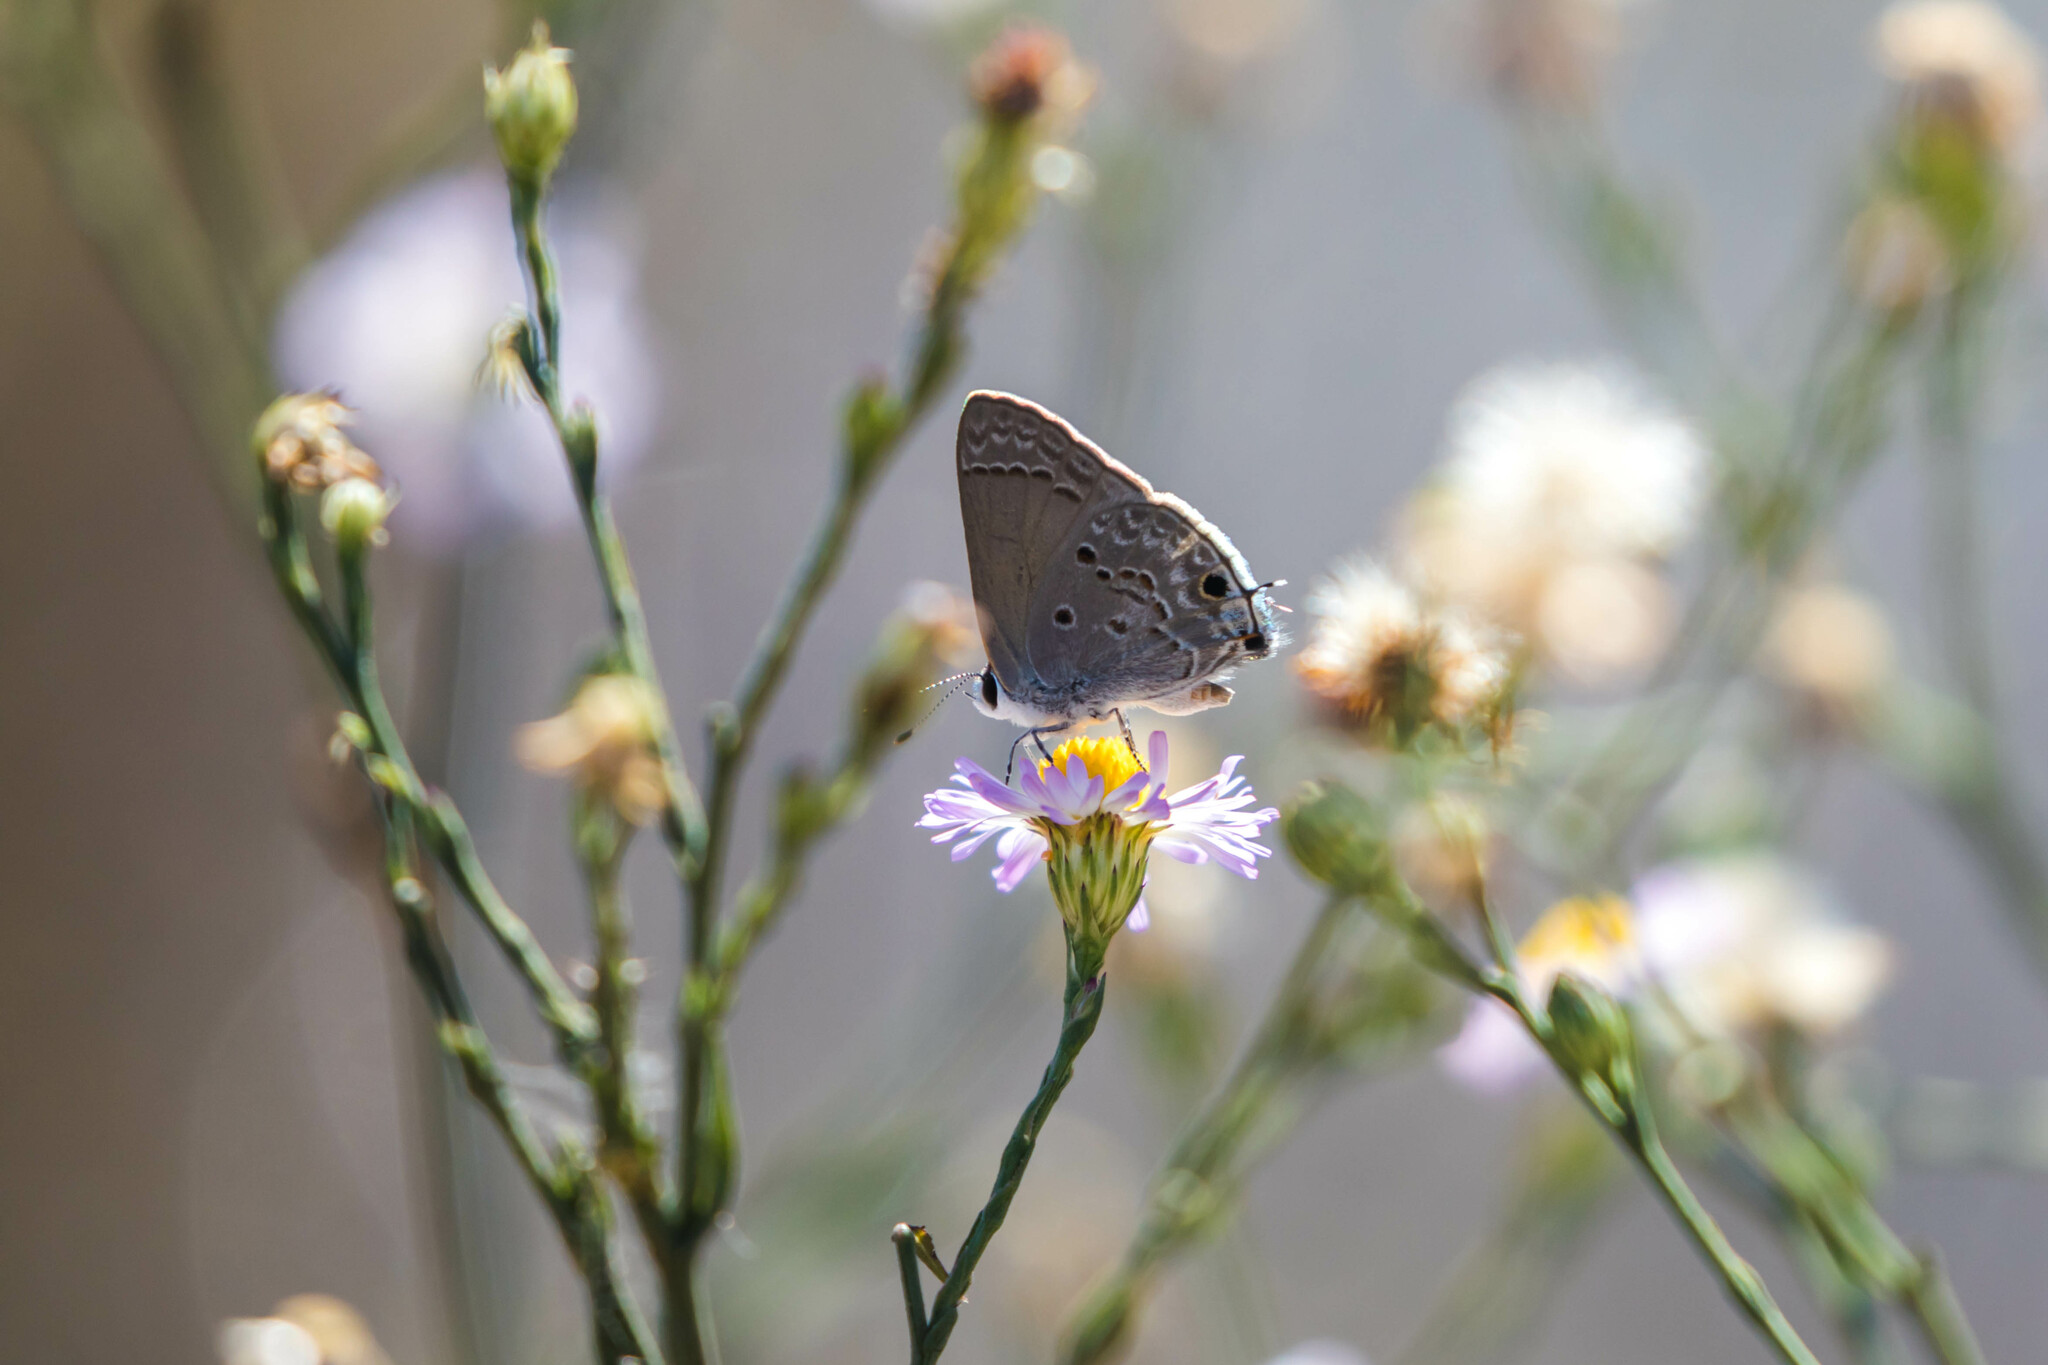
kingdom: Animalia
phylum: Arthropoda
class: Insecta
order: Lepidoptera
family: Lycaenidae
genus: Callicista
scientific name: Callicista columella
